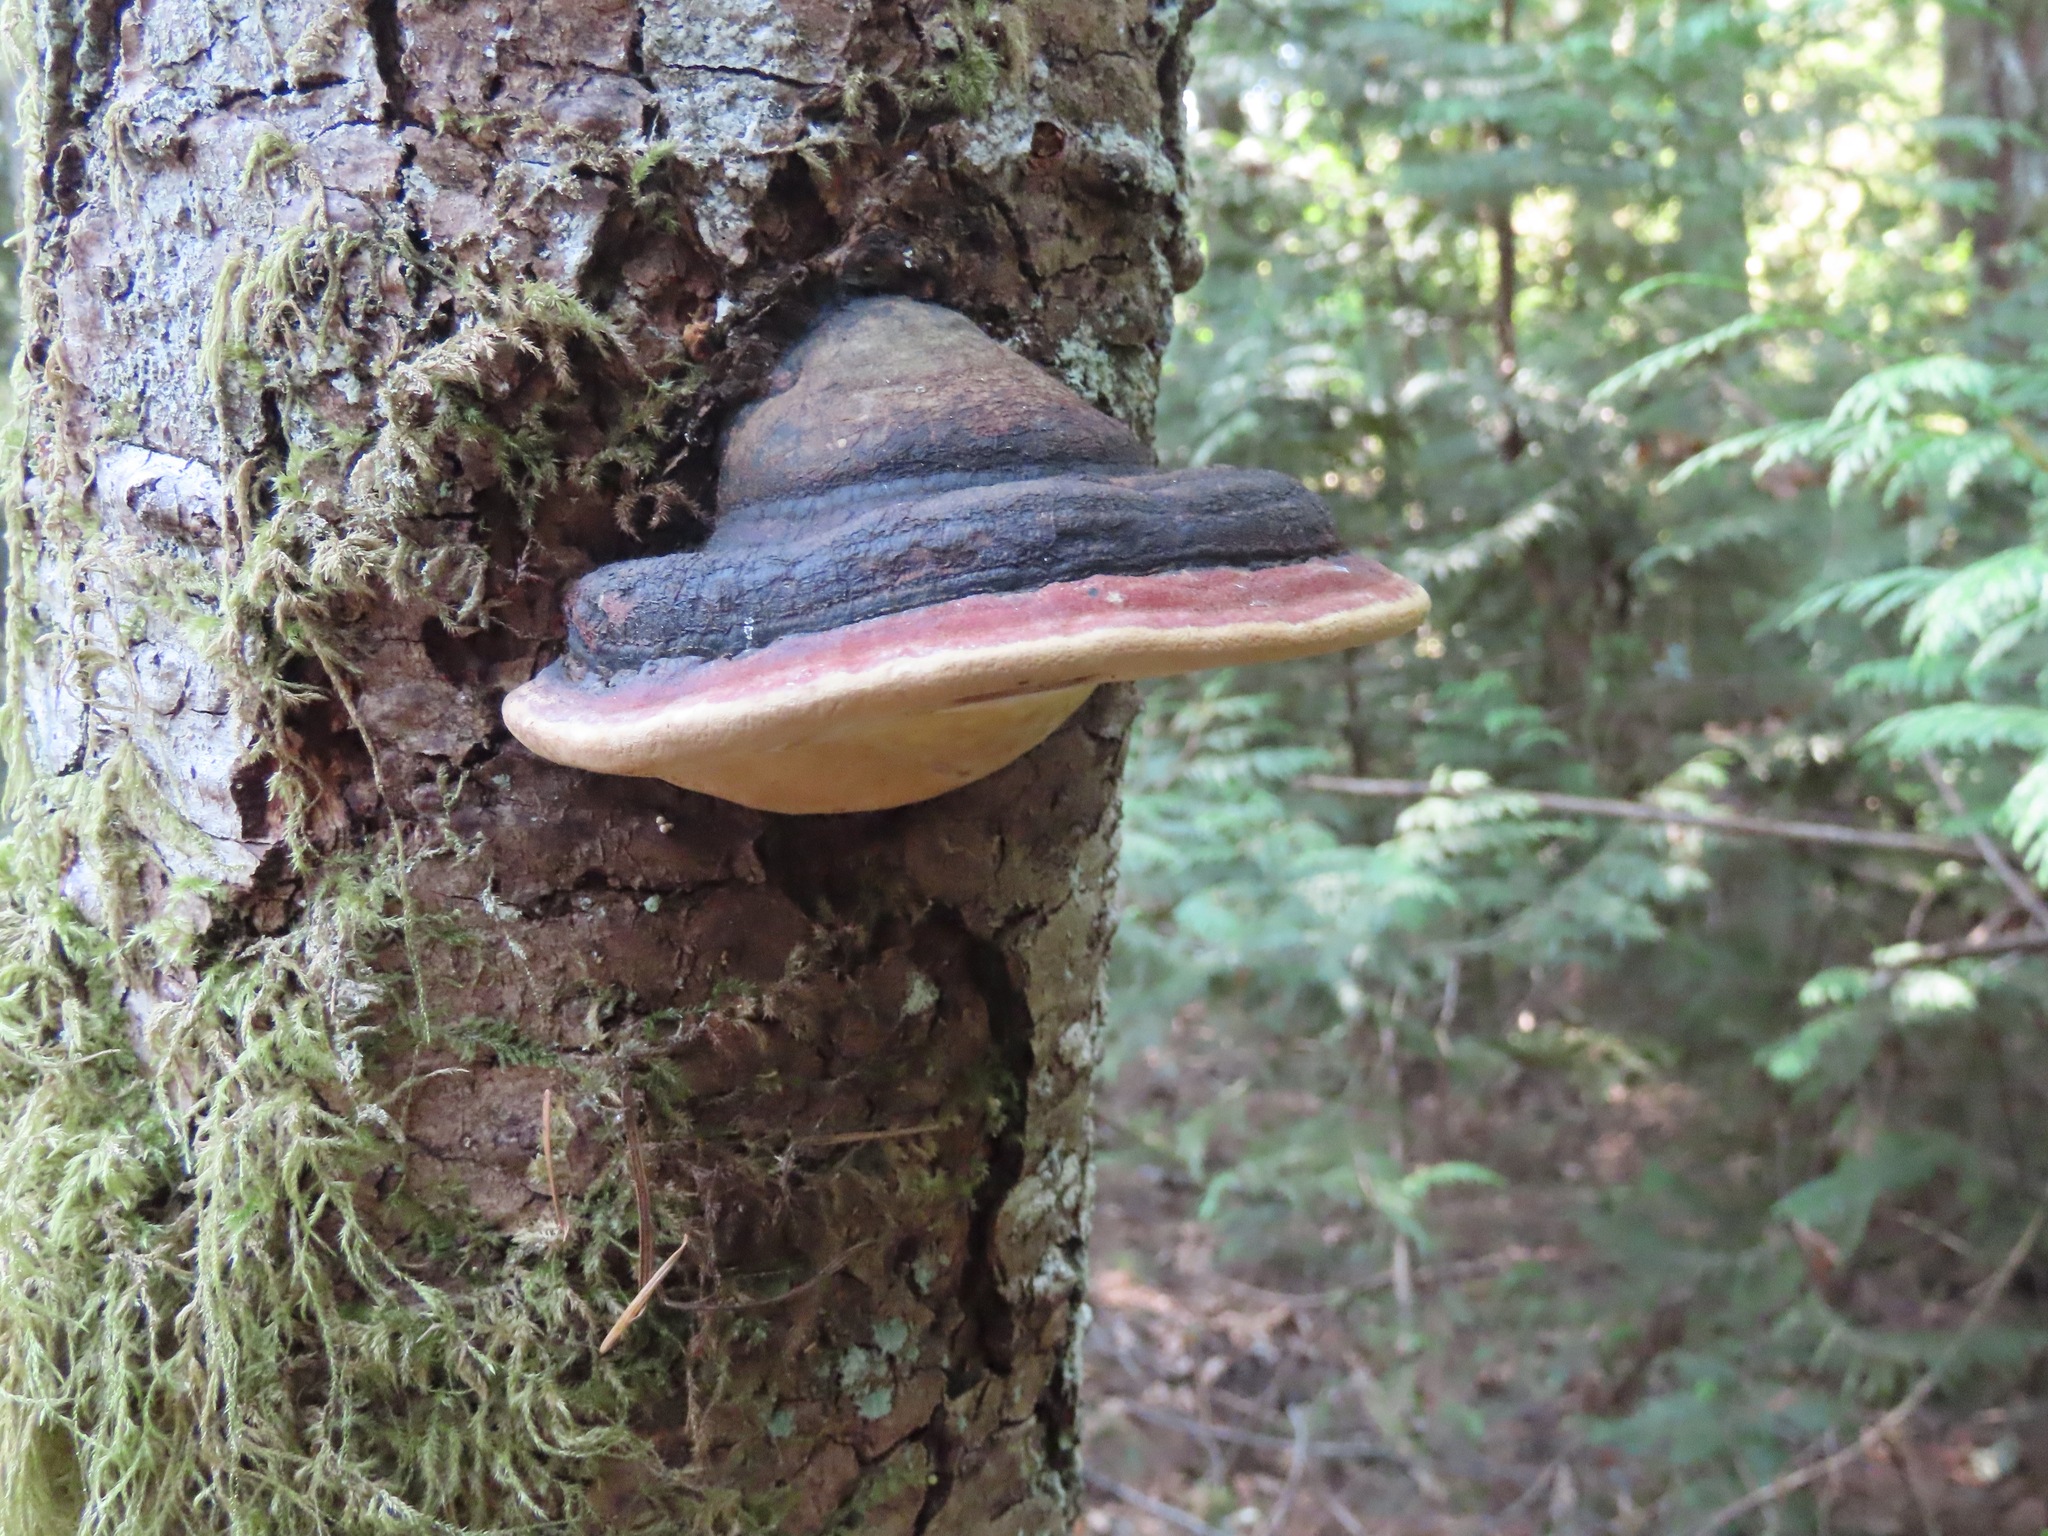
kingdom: Fungi
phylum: Basidiomycota
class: Agaricomycetes
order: Polyporales
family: Fomitopsidaceae
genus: Fomitopsis
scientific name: Fomitopsis mounceae
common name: Northern red belt
